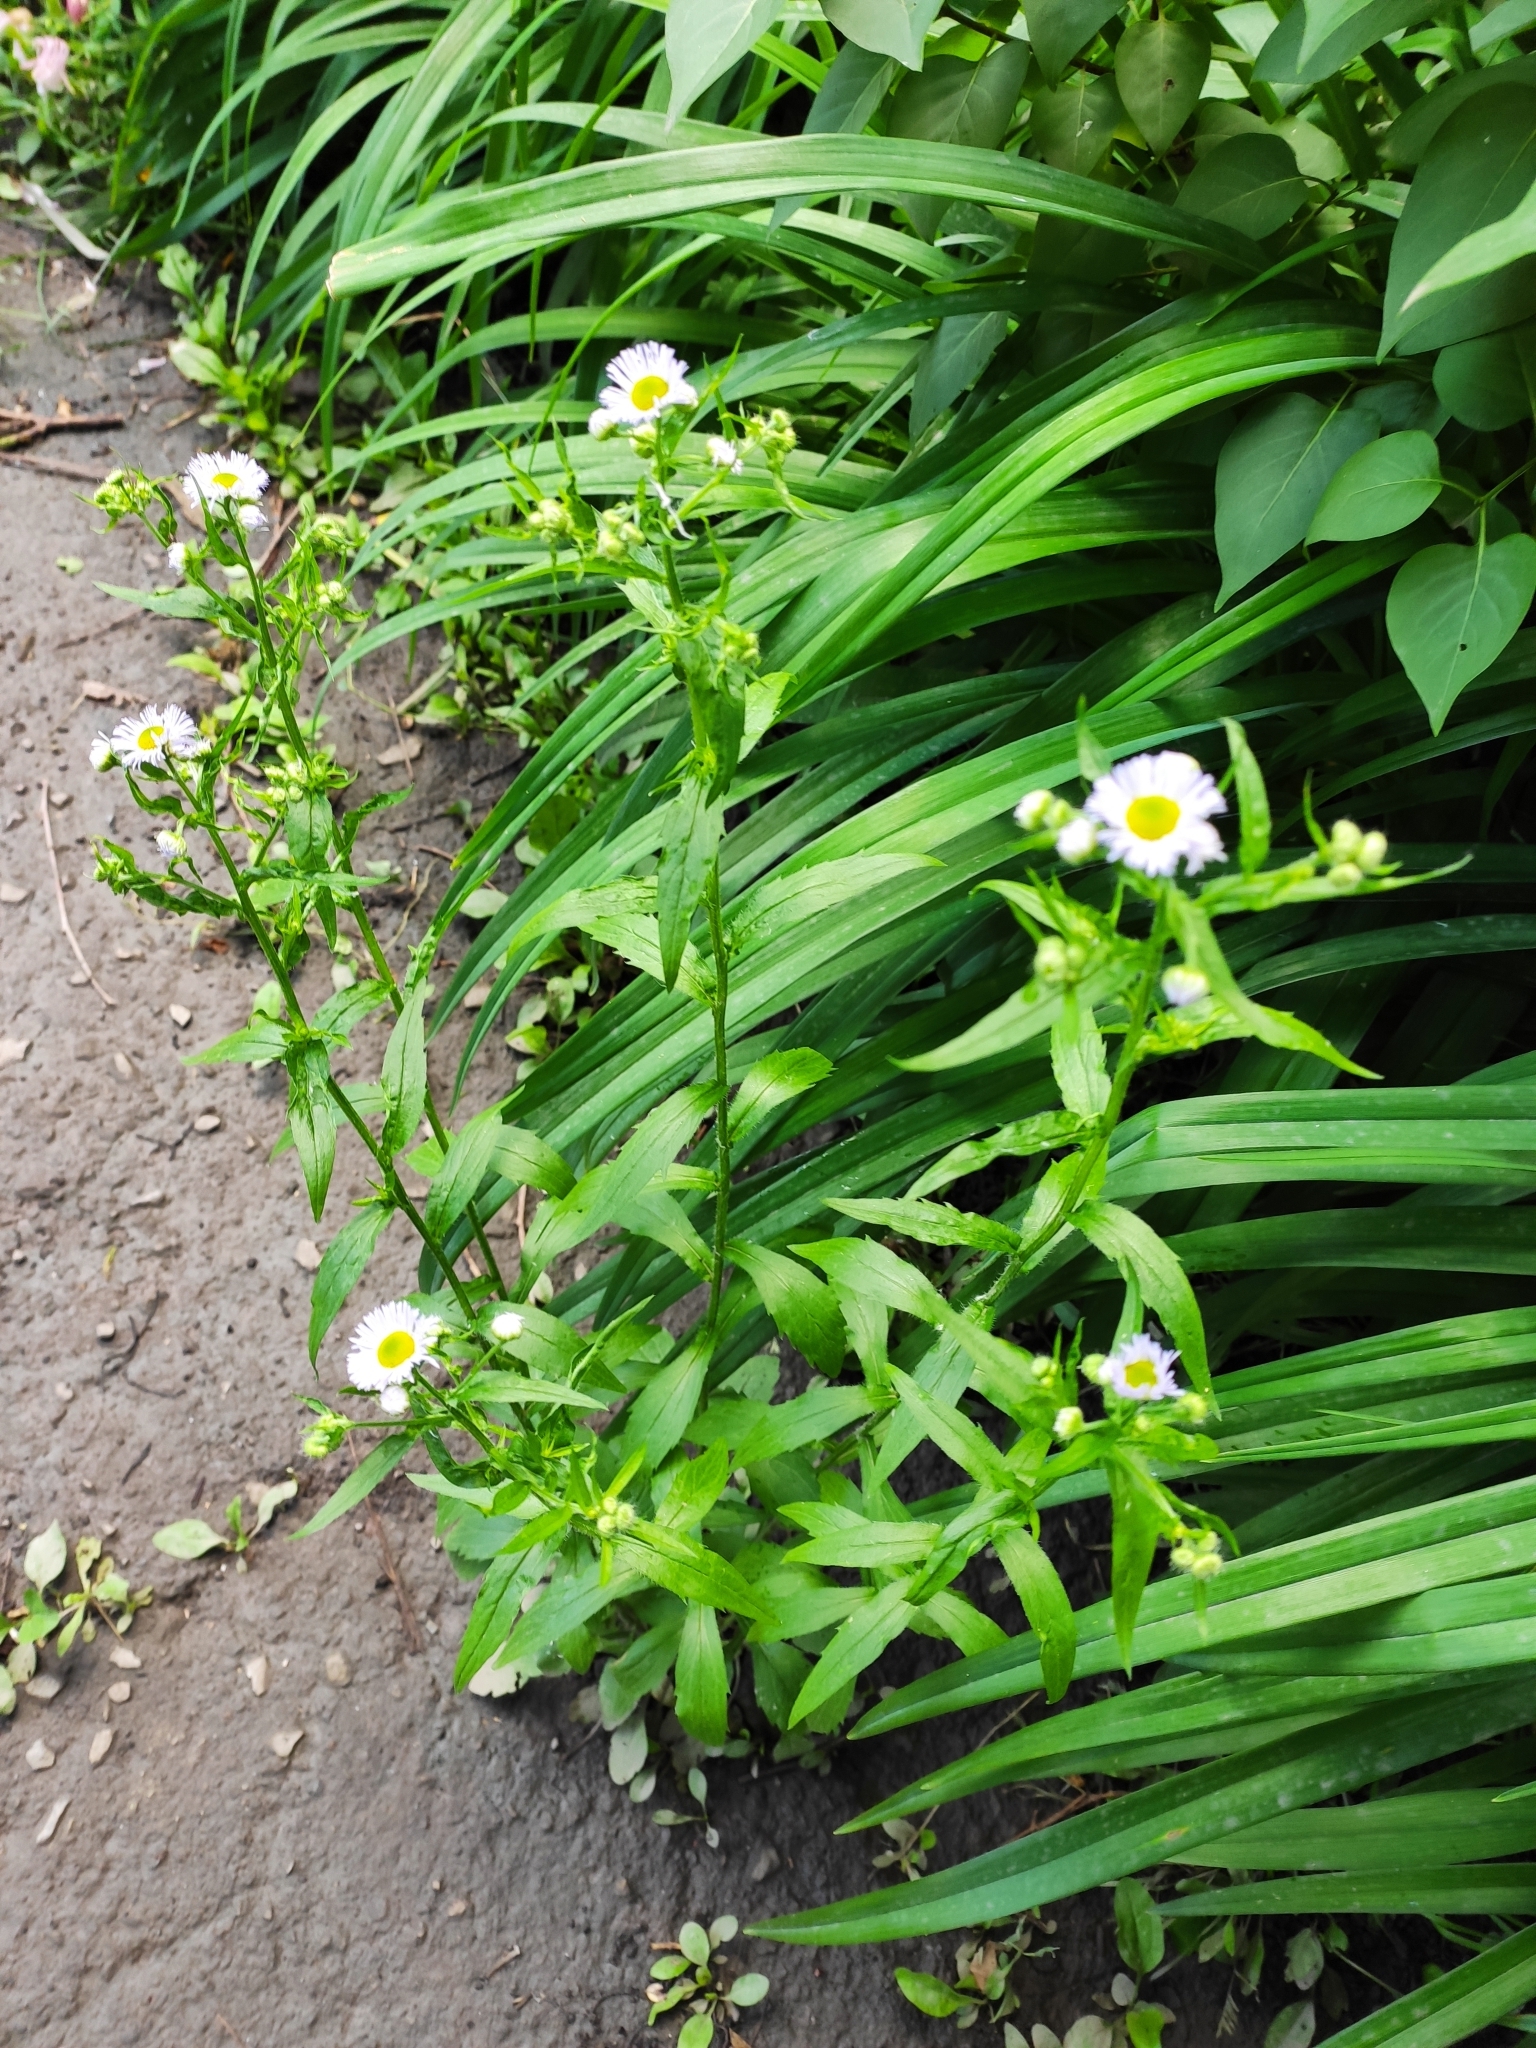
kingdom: Plantae
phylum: Tracheophyta
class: Magnoliopsida
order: Asterales
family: Asteraceae
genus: Erigeron
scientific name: Erigeron strigosus
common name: Common eastern fleabane
